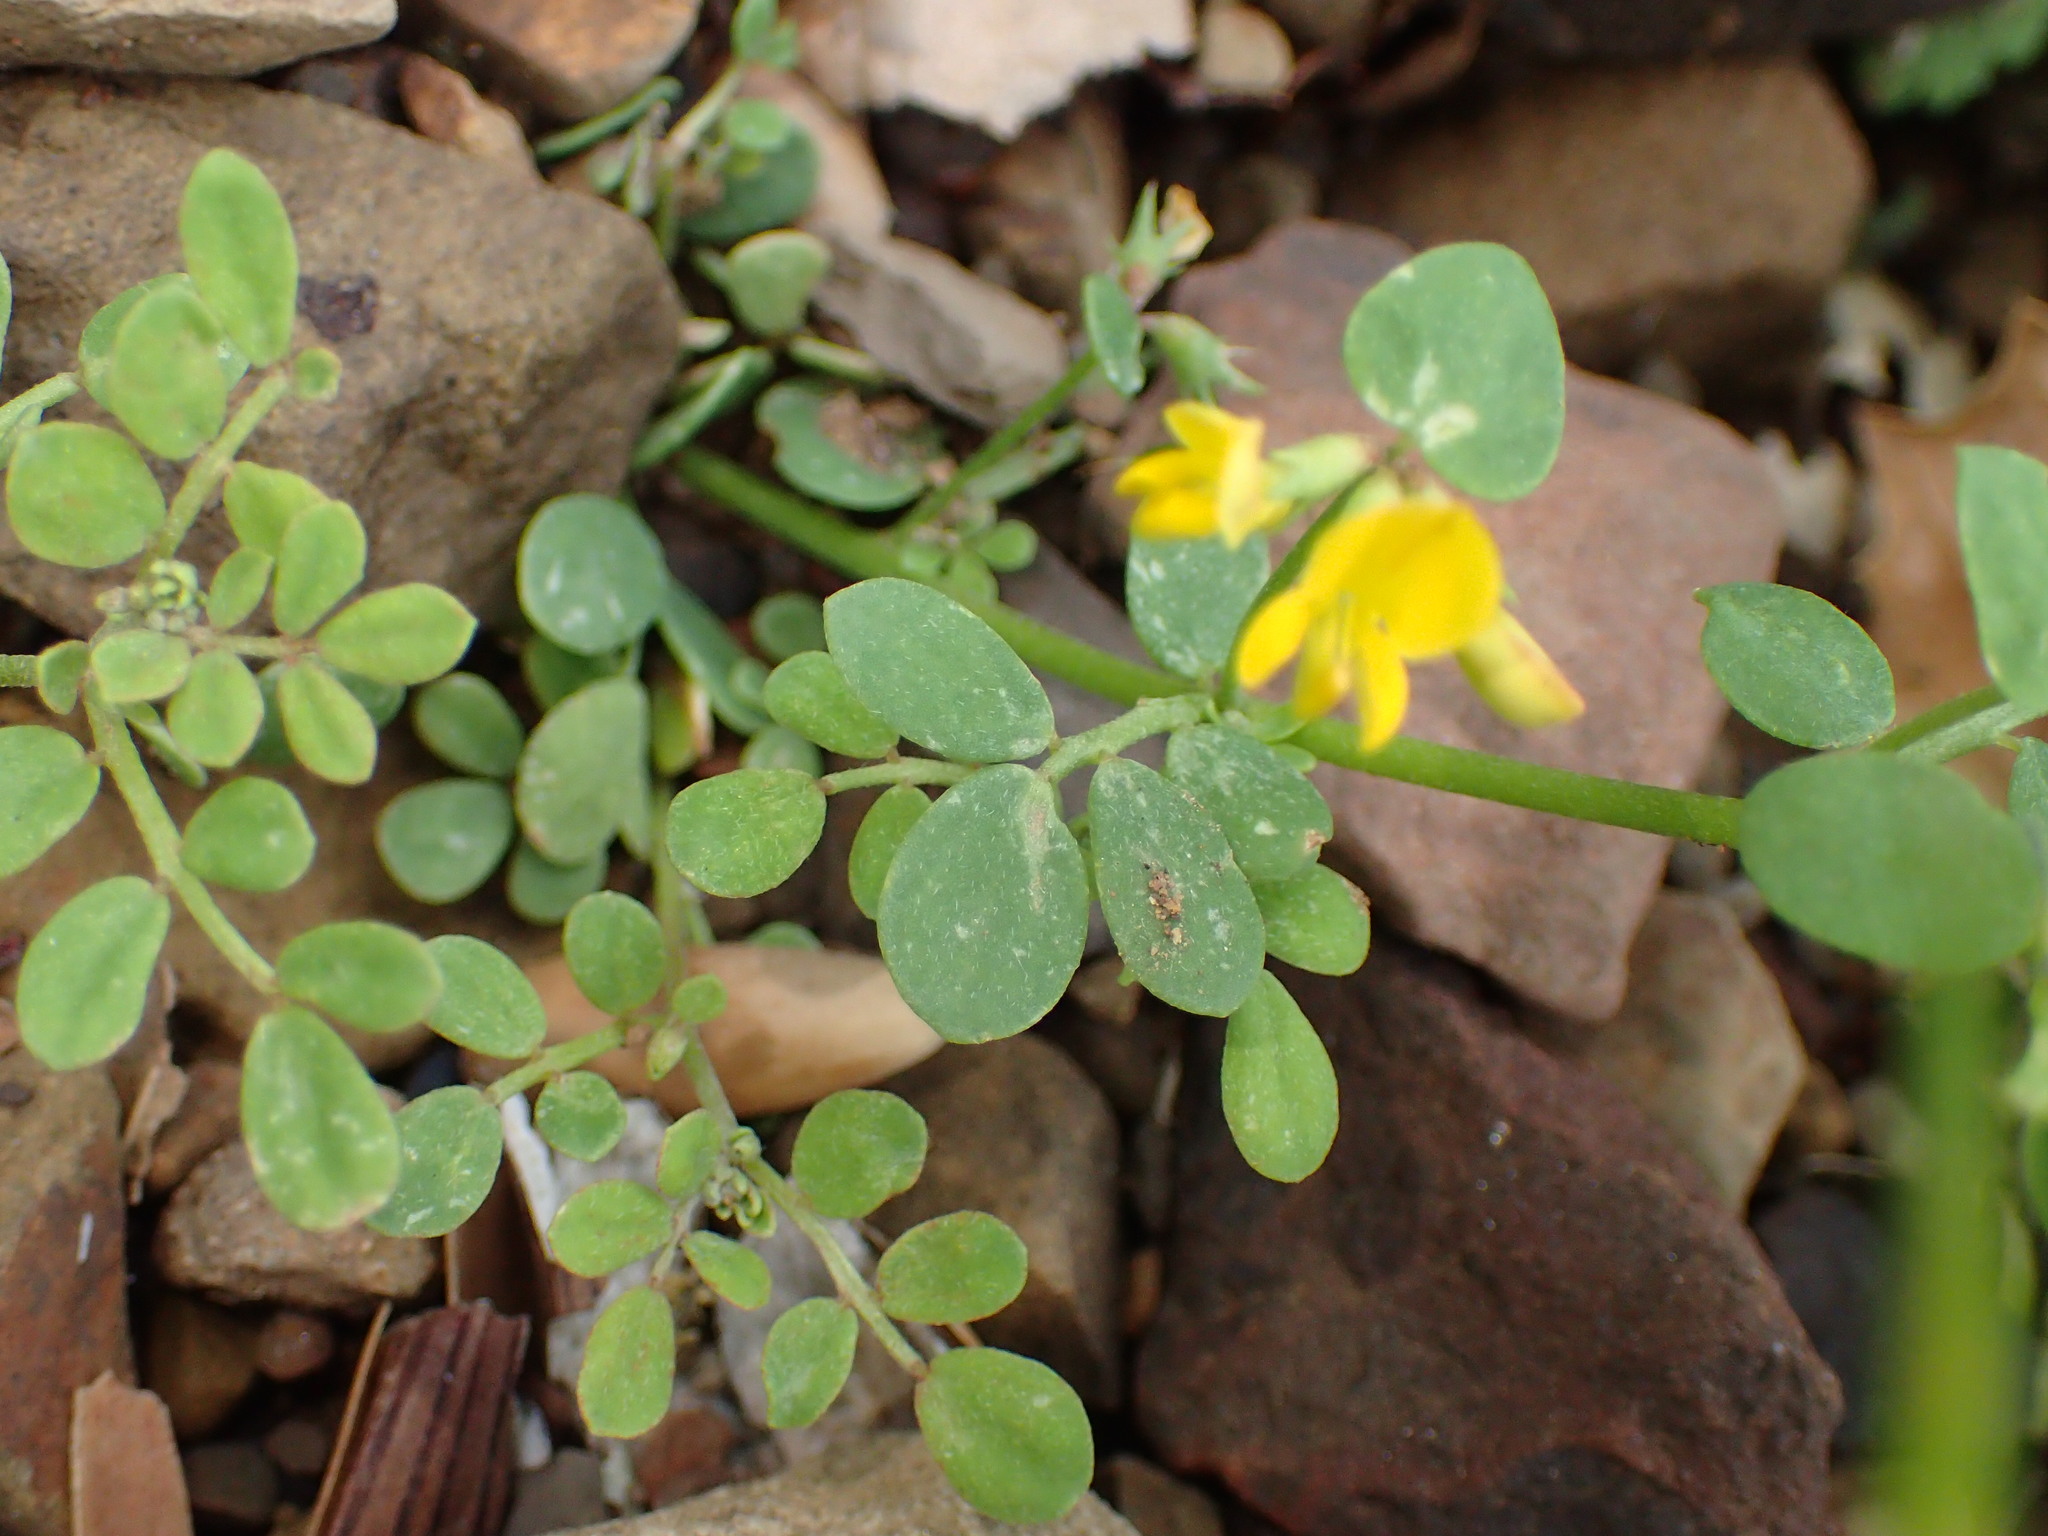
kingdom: Plantae
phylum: Tracheophyta
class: Magnoliopsida
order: Fabales
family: Fabaceae
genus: Acmispon
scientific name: Acmispon maritimus
